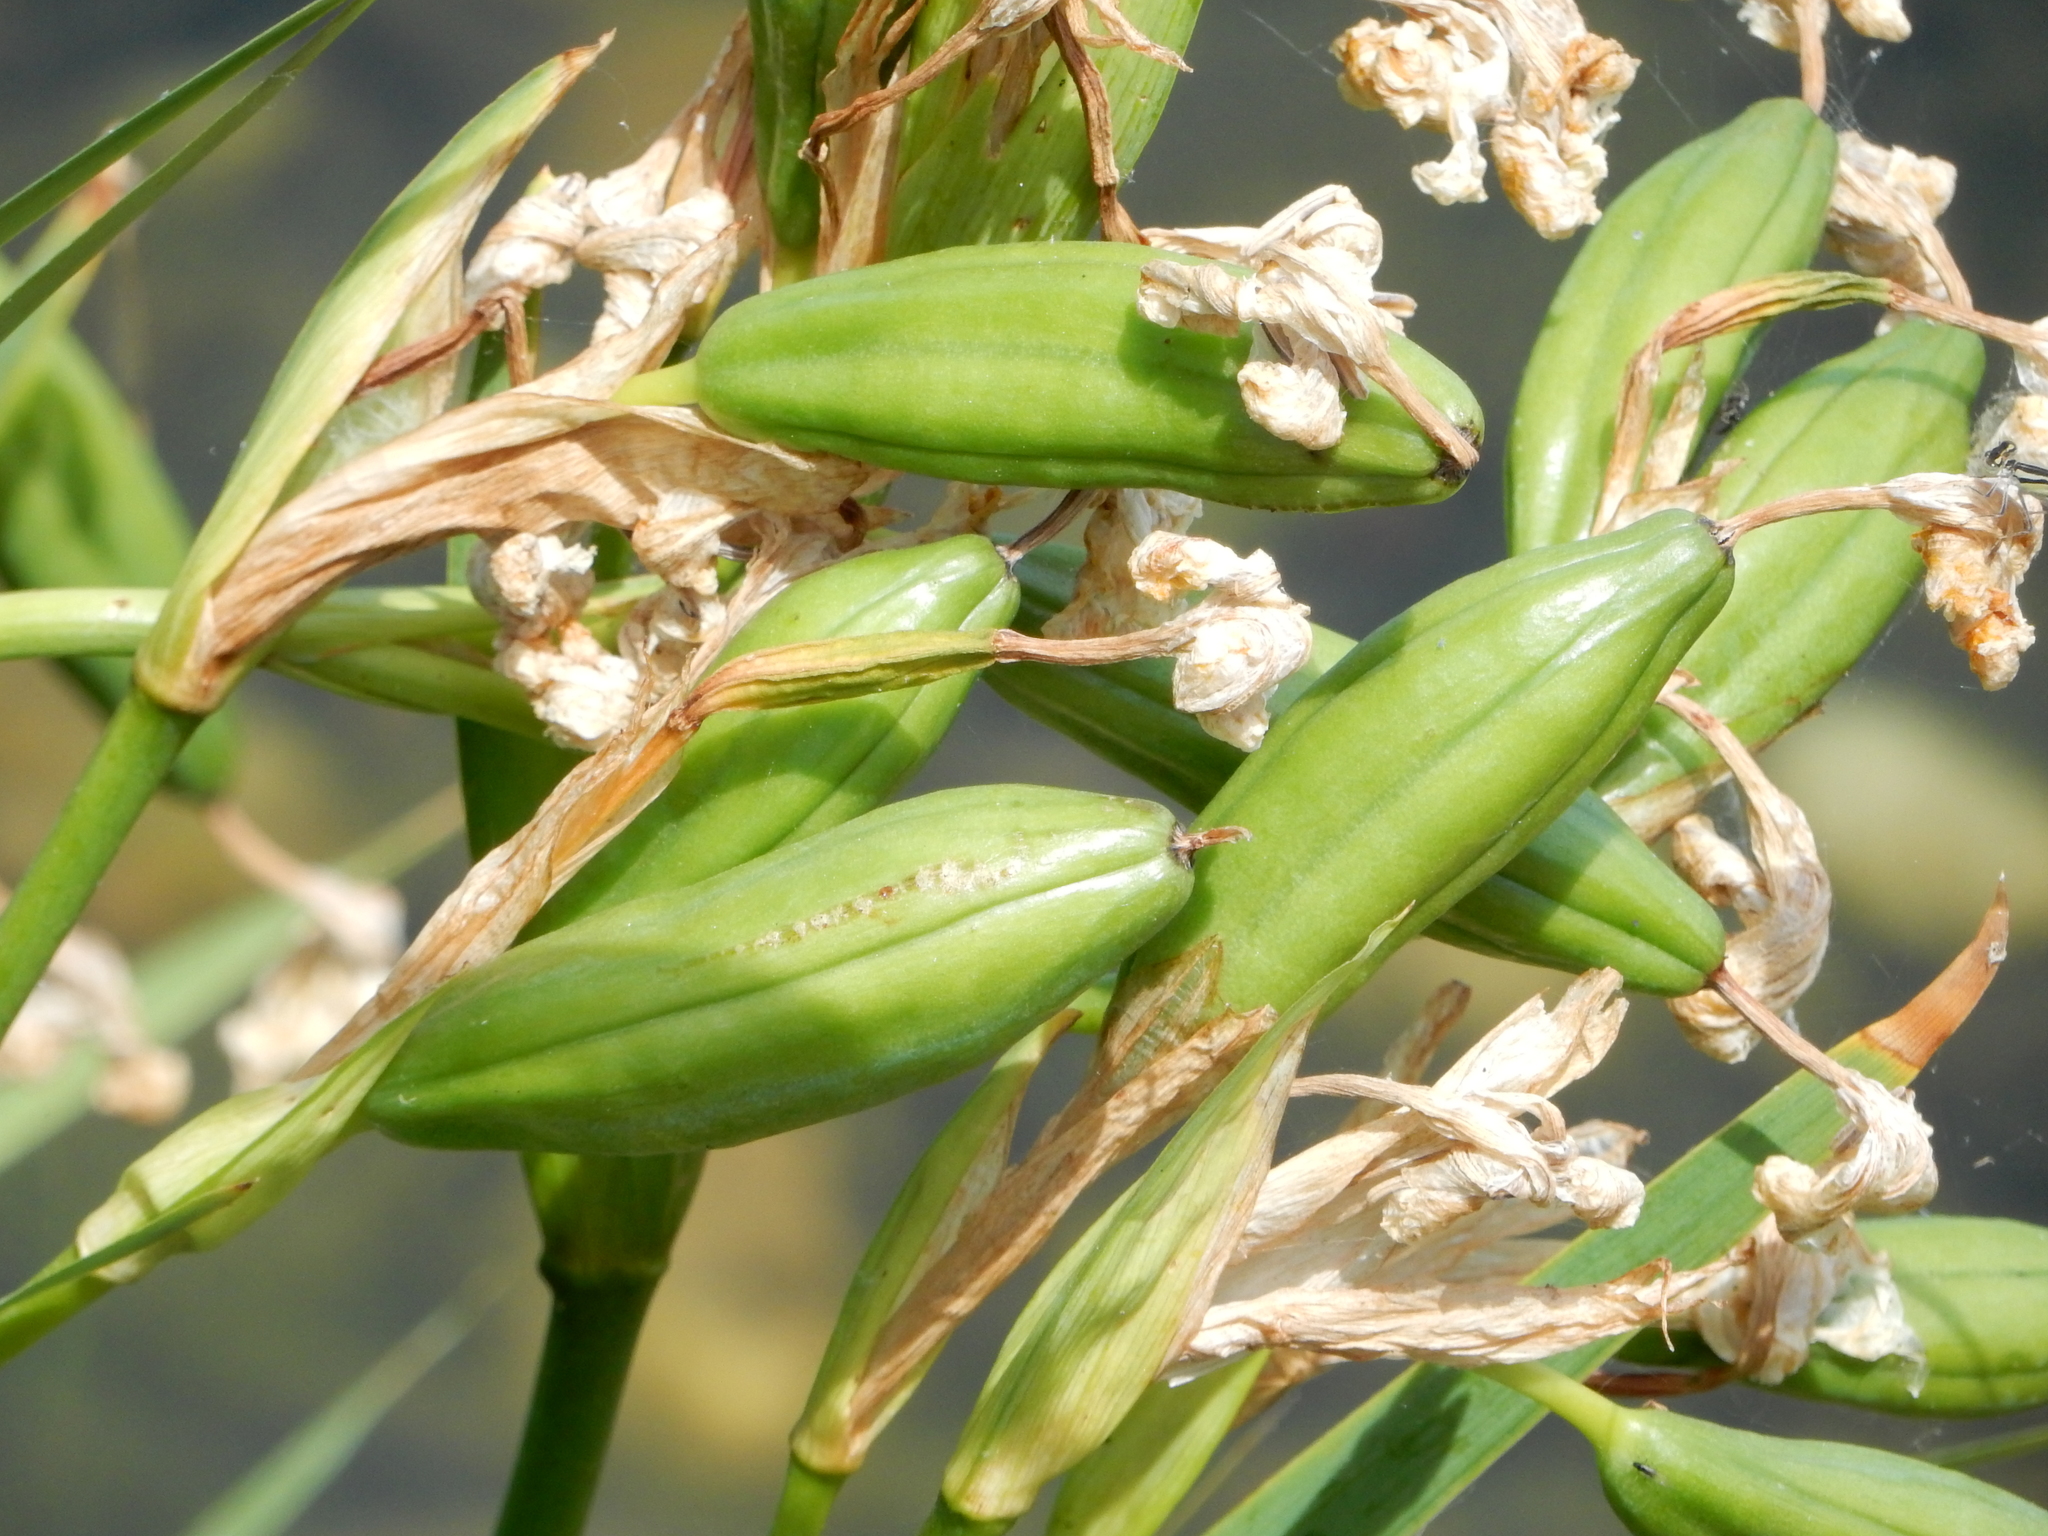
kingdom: Plantae
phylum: Tracheophyta
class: Liliopsida
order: Asparagales
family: Iridaceae
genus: Iris
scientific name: Iris pseudacorus
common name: Yellow flag
